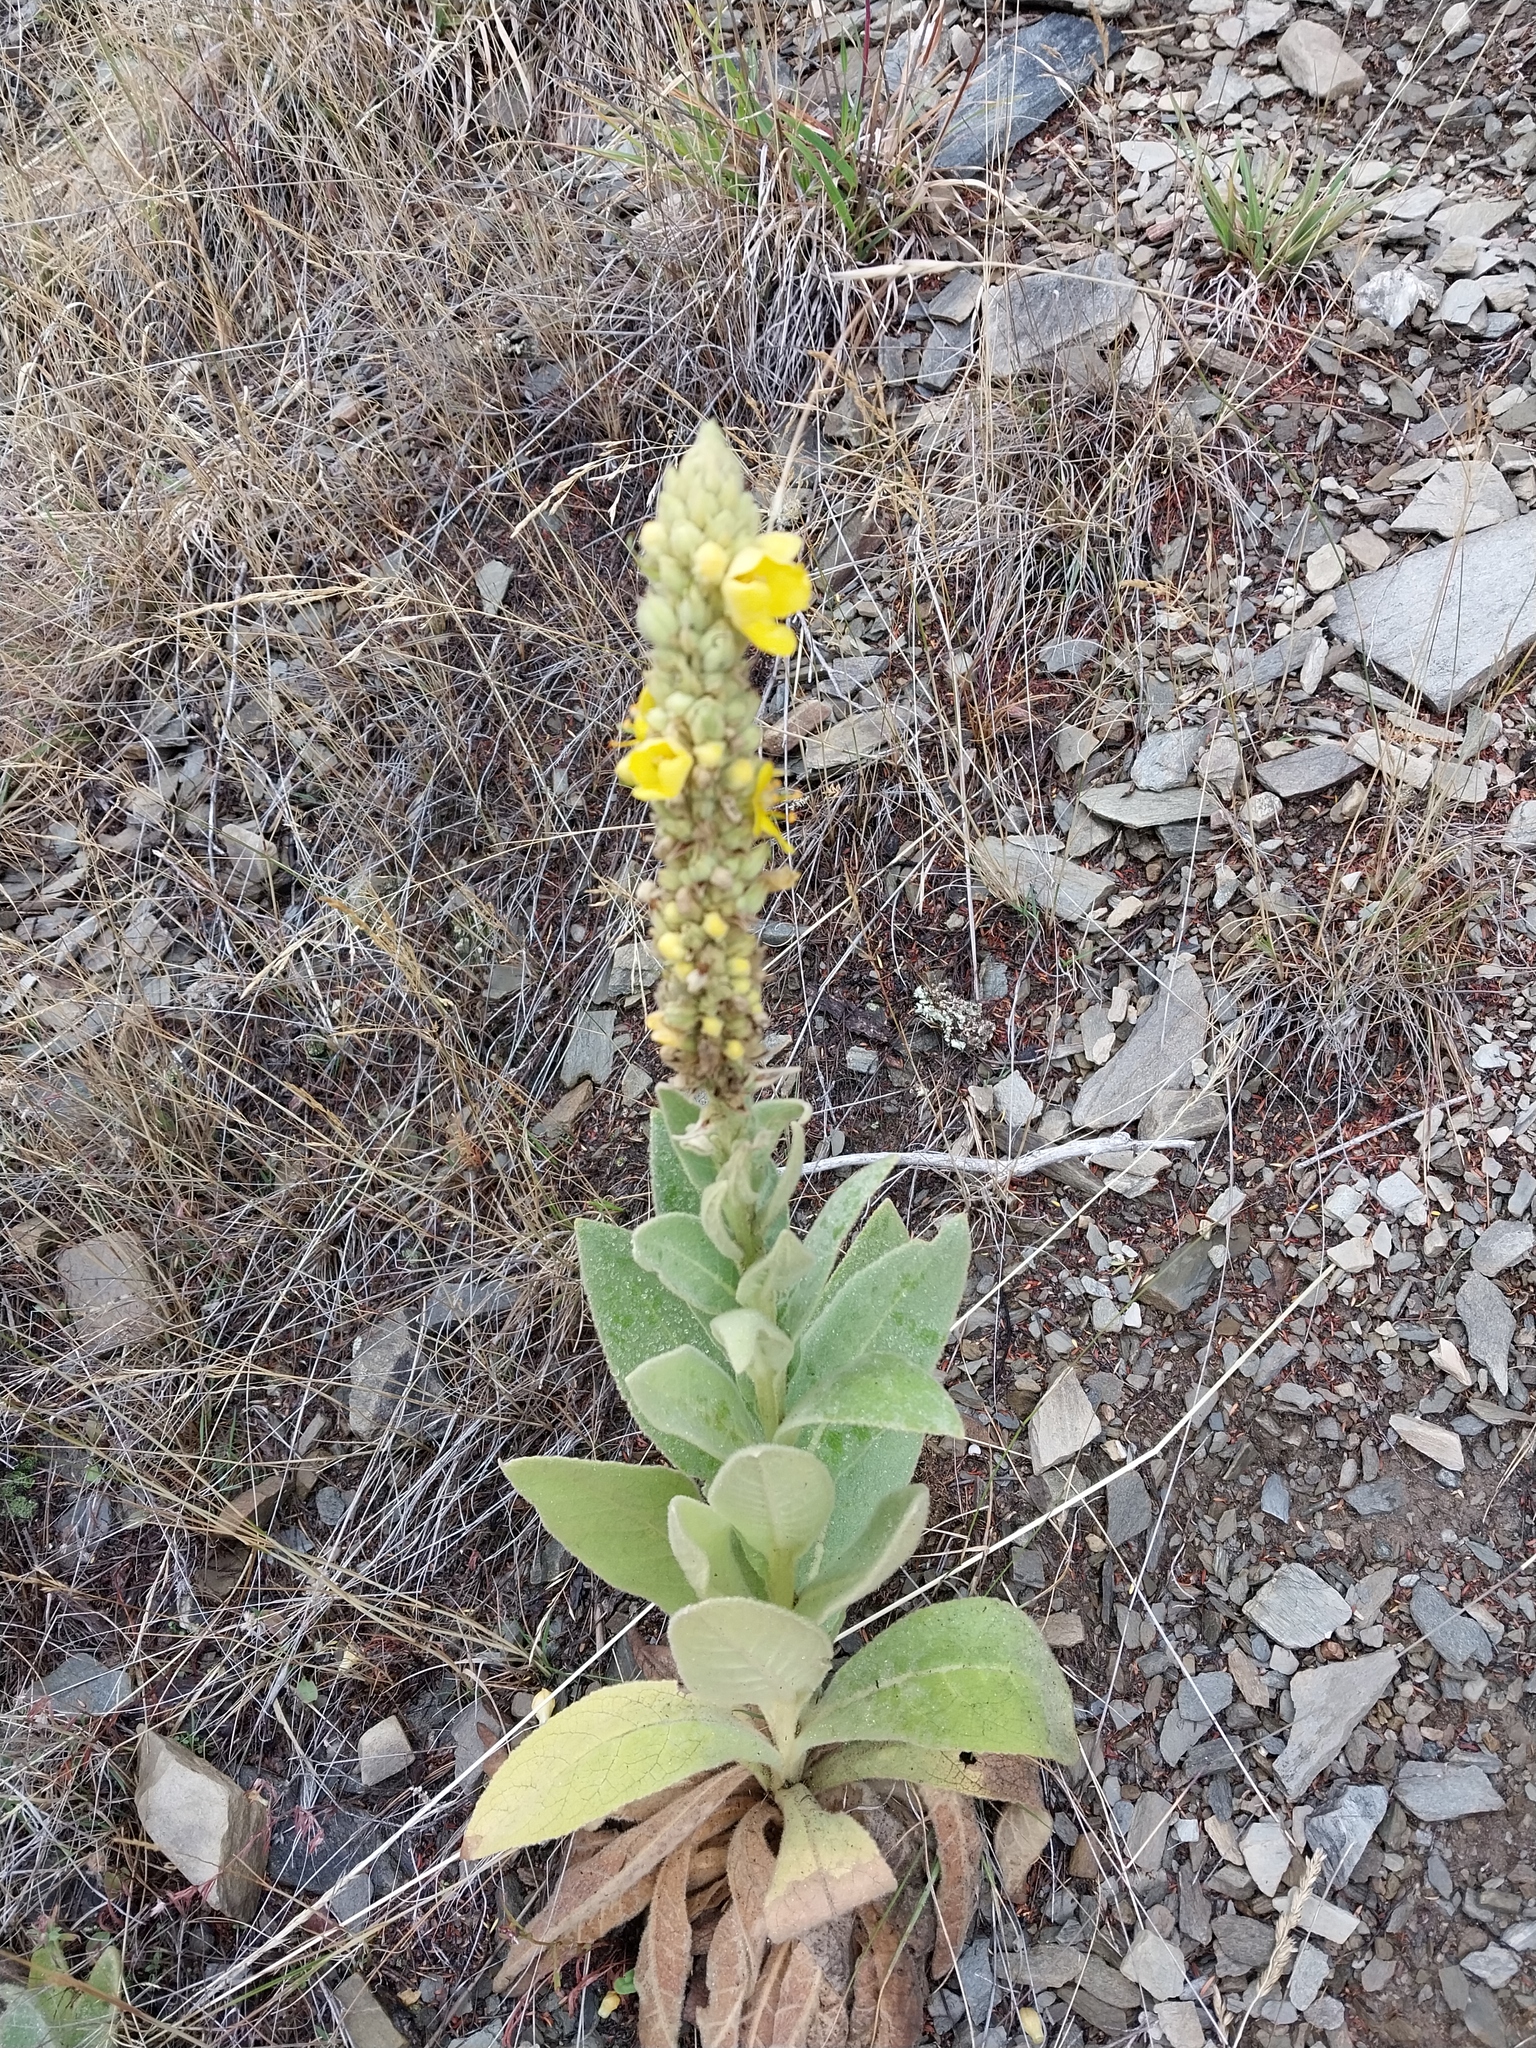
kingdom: Plantae
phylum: Tracheophyta
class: Magnoliopsida
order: Lamiales
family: Scrophulariaceae
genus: Verbascum
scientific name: Verbascum thapsus
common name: Common mullein
